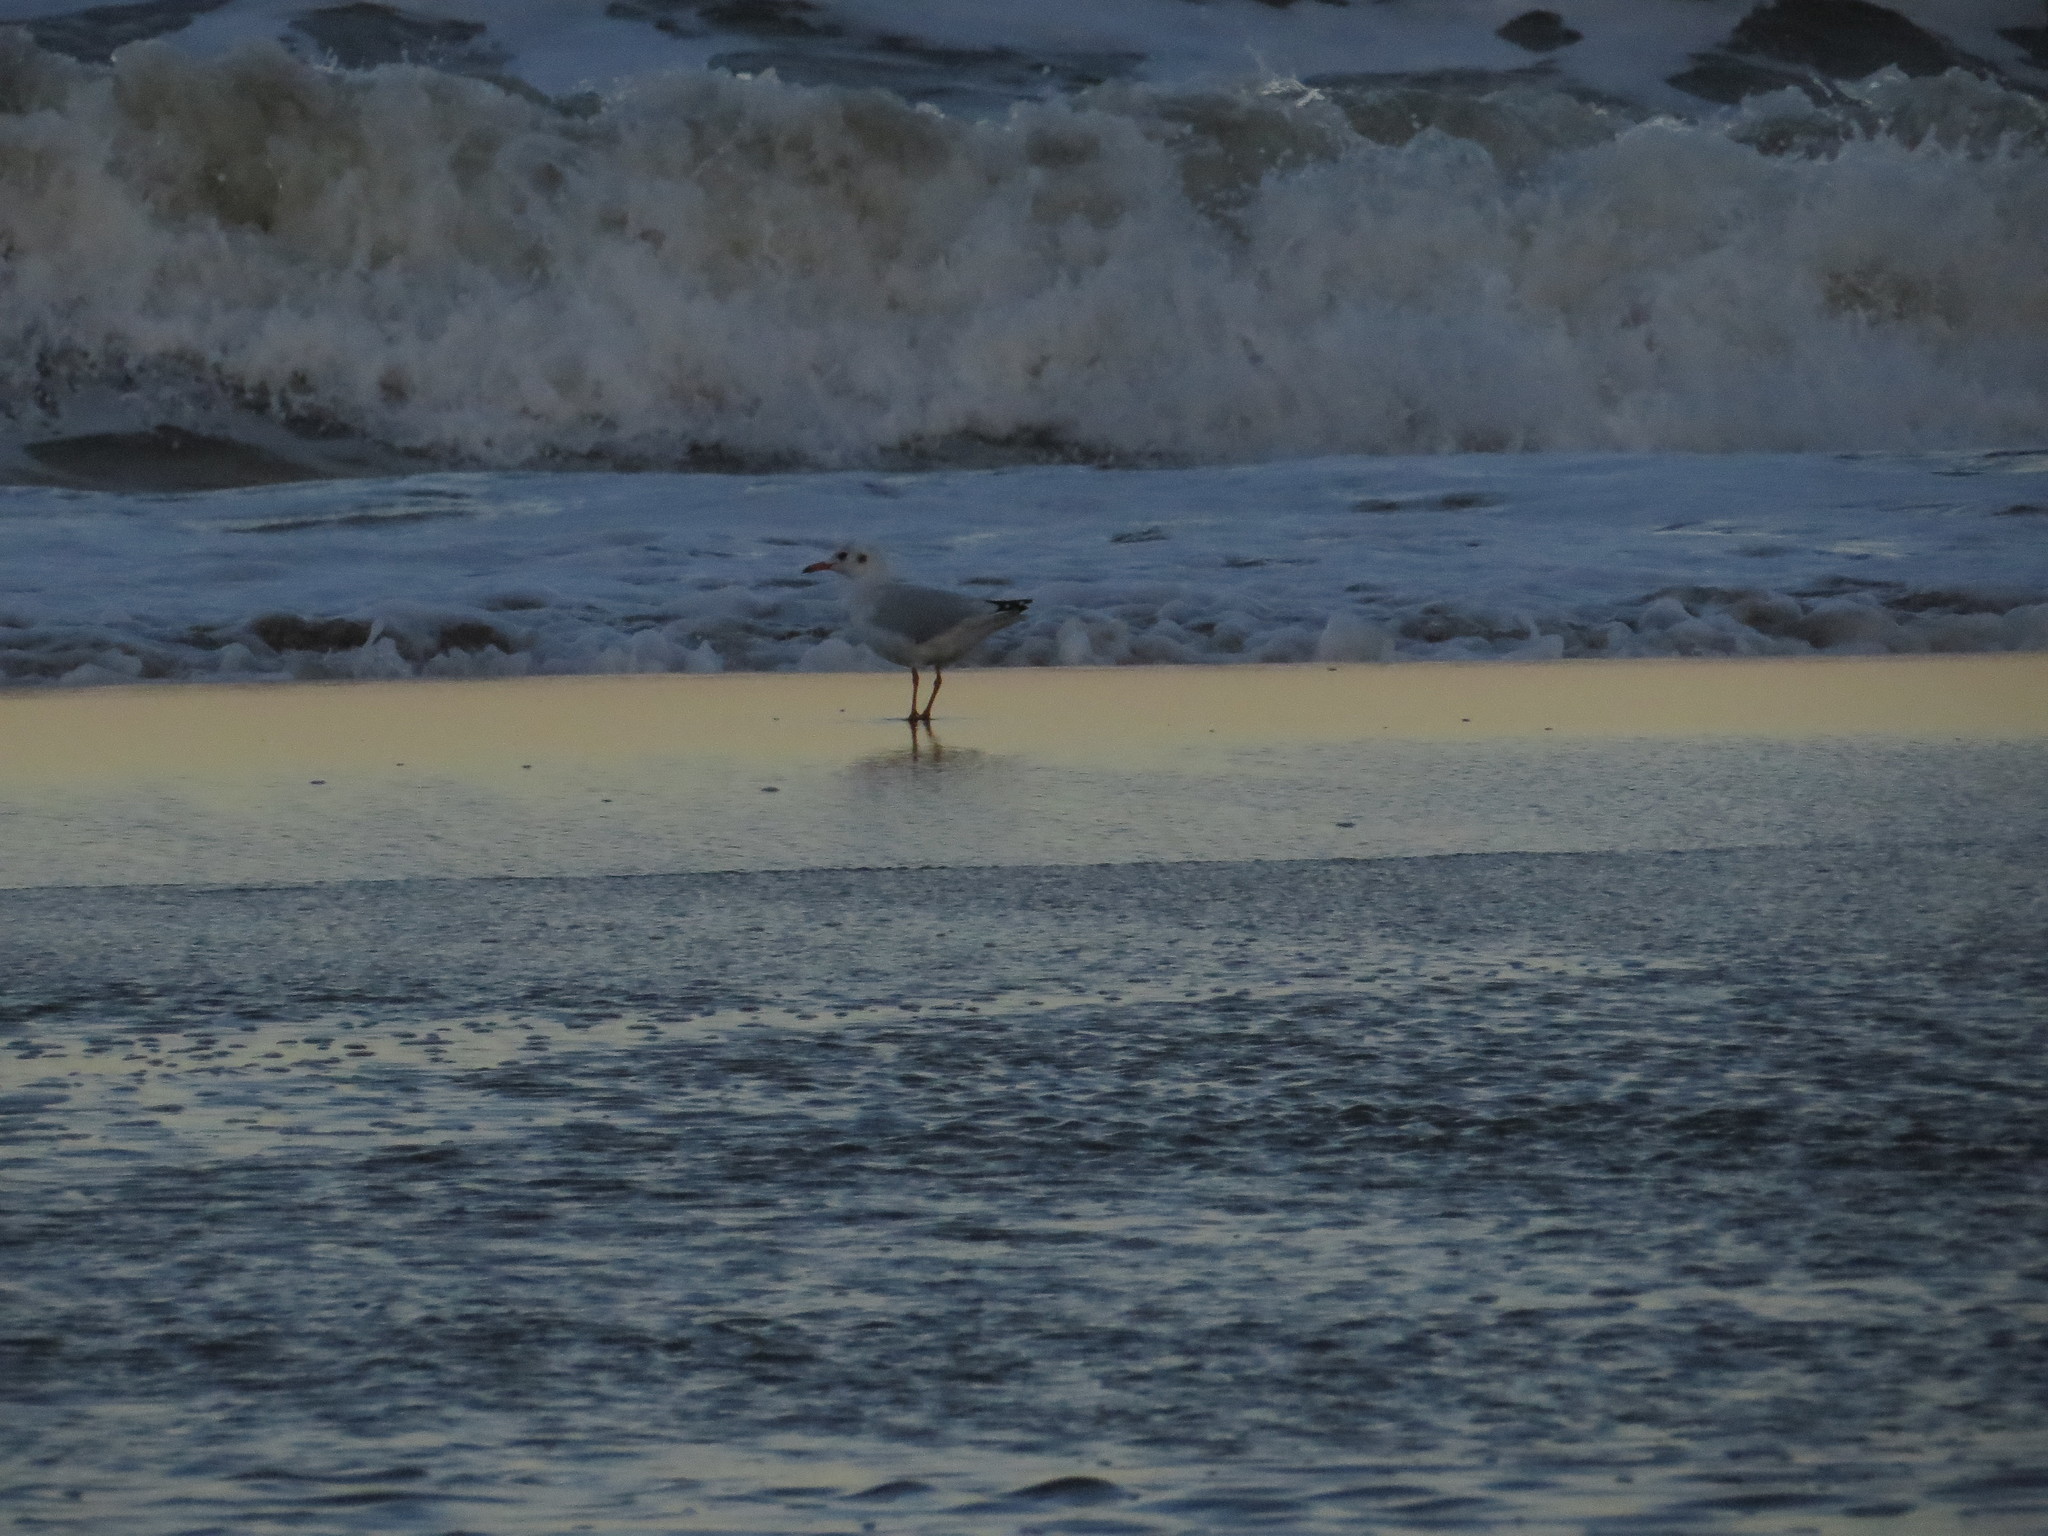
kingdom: Animalia
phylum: Chordata
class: Aves
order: Charadriiformes
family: Laridae
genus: Chroicocephalus
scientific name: Chroicocephalus maculipennis
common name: Brown-hooded gull
